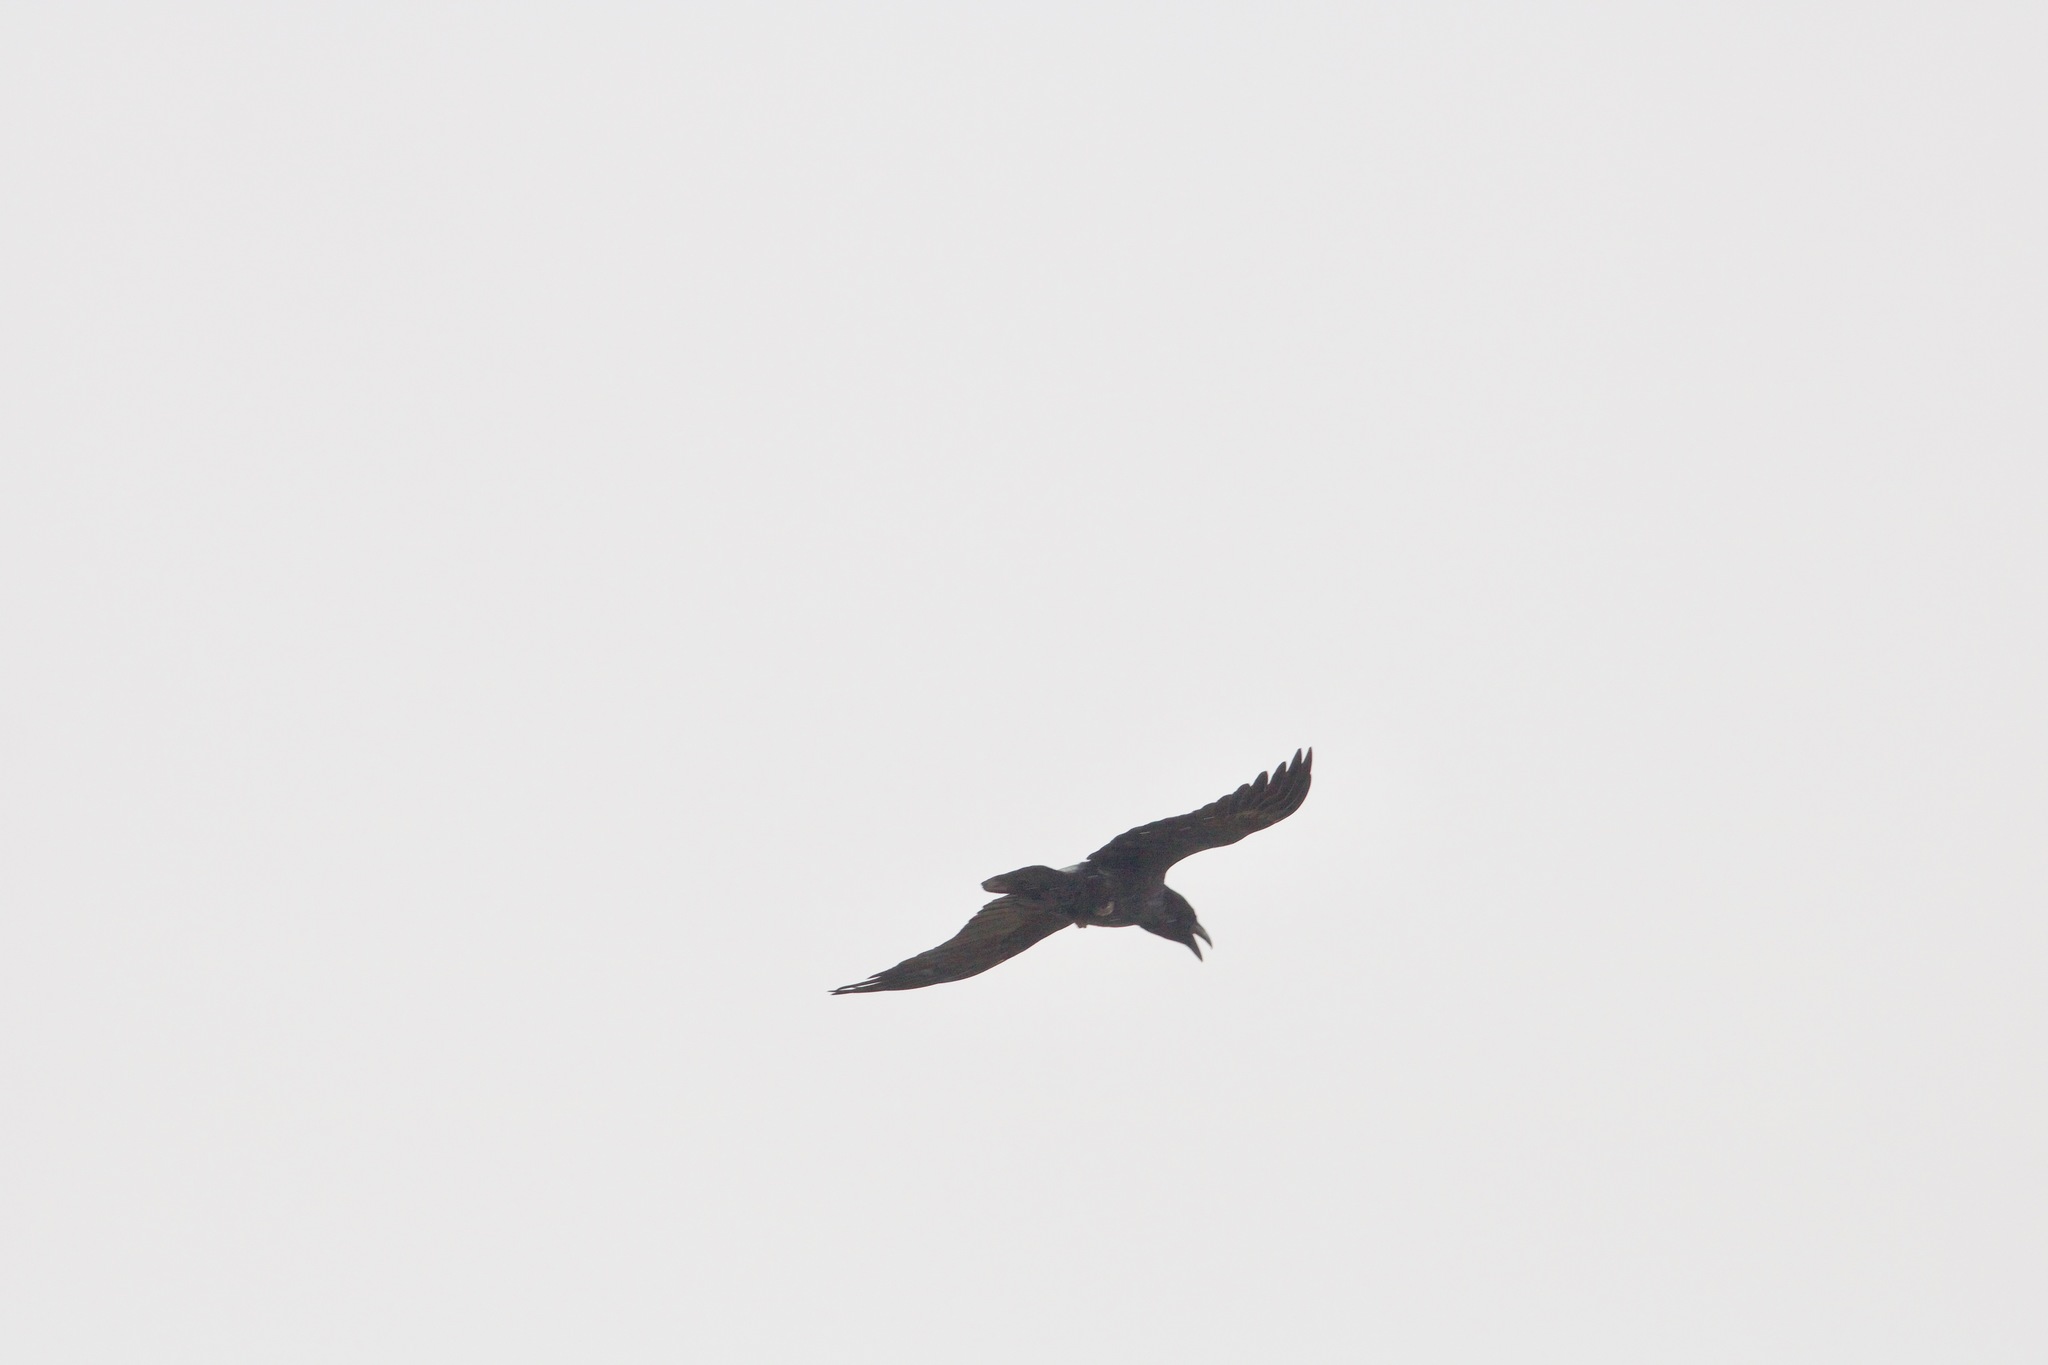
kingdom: Animalia
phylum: Chordata
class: Aves
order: Passeriformes
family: Corvidae
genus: Corvus
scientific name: Corvus corax
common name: Common raven
